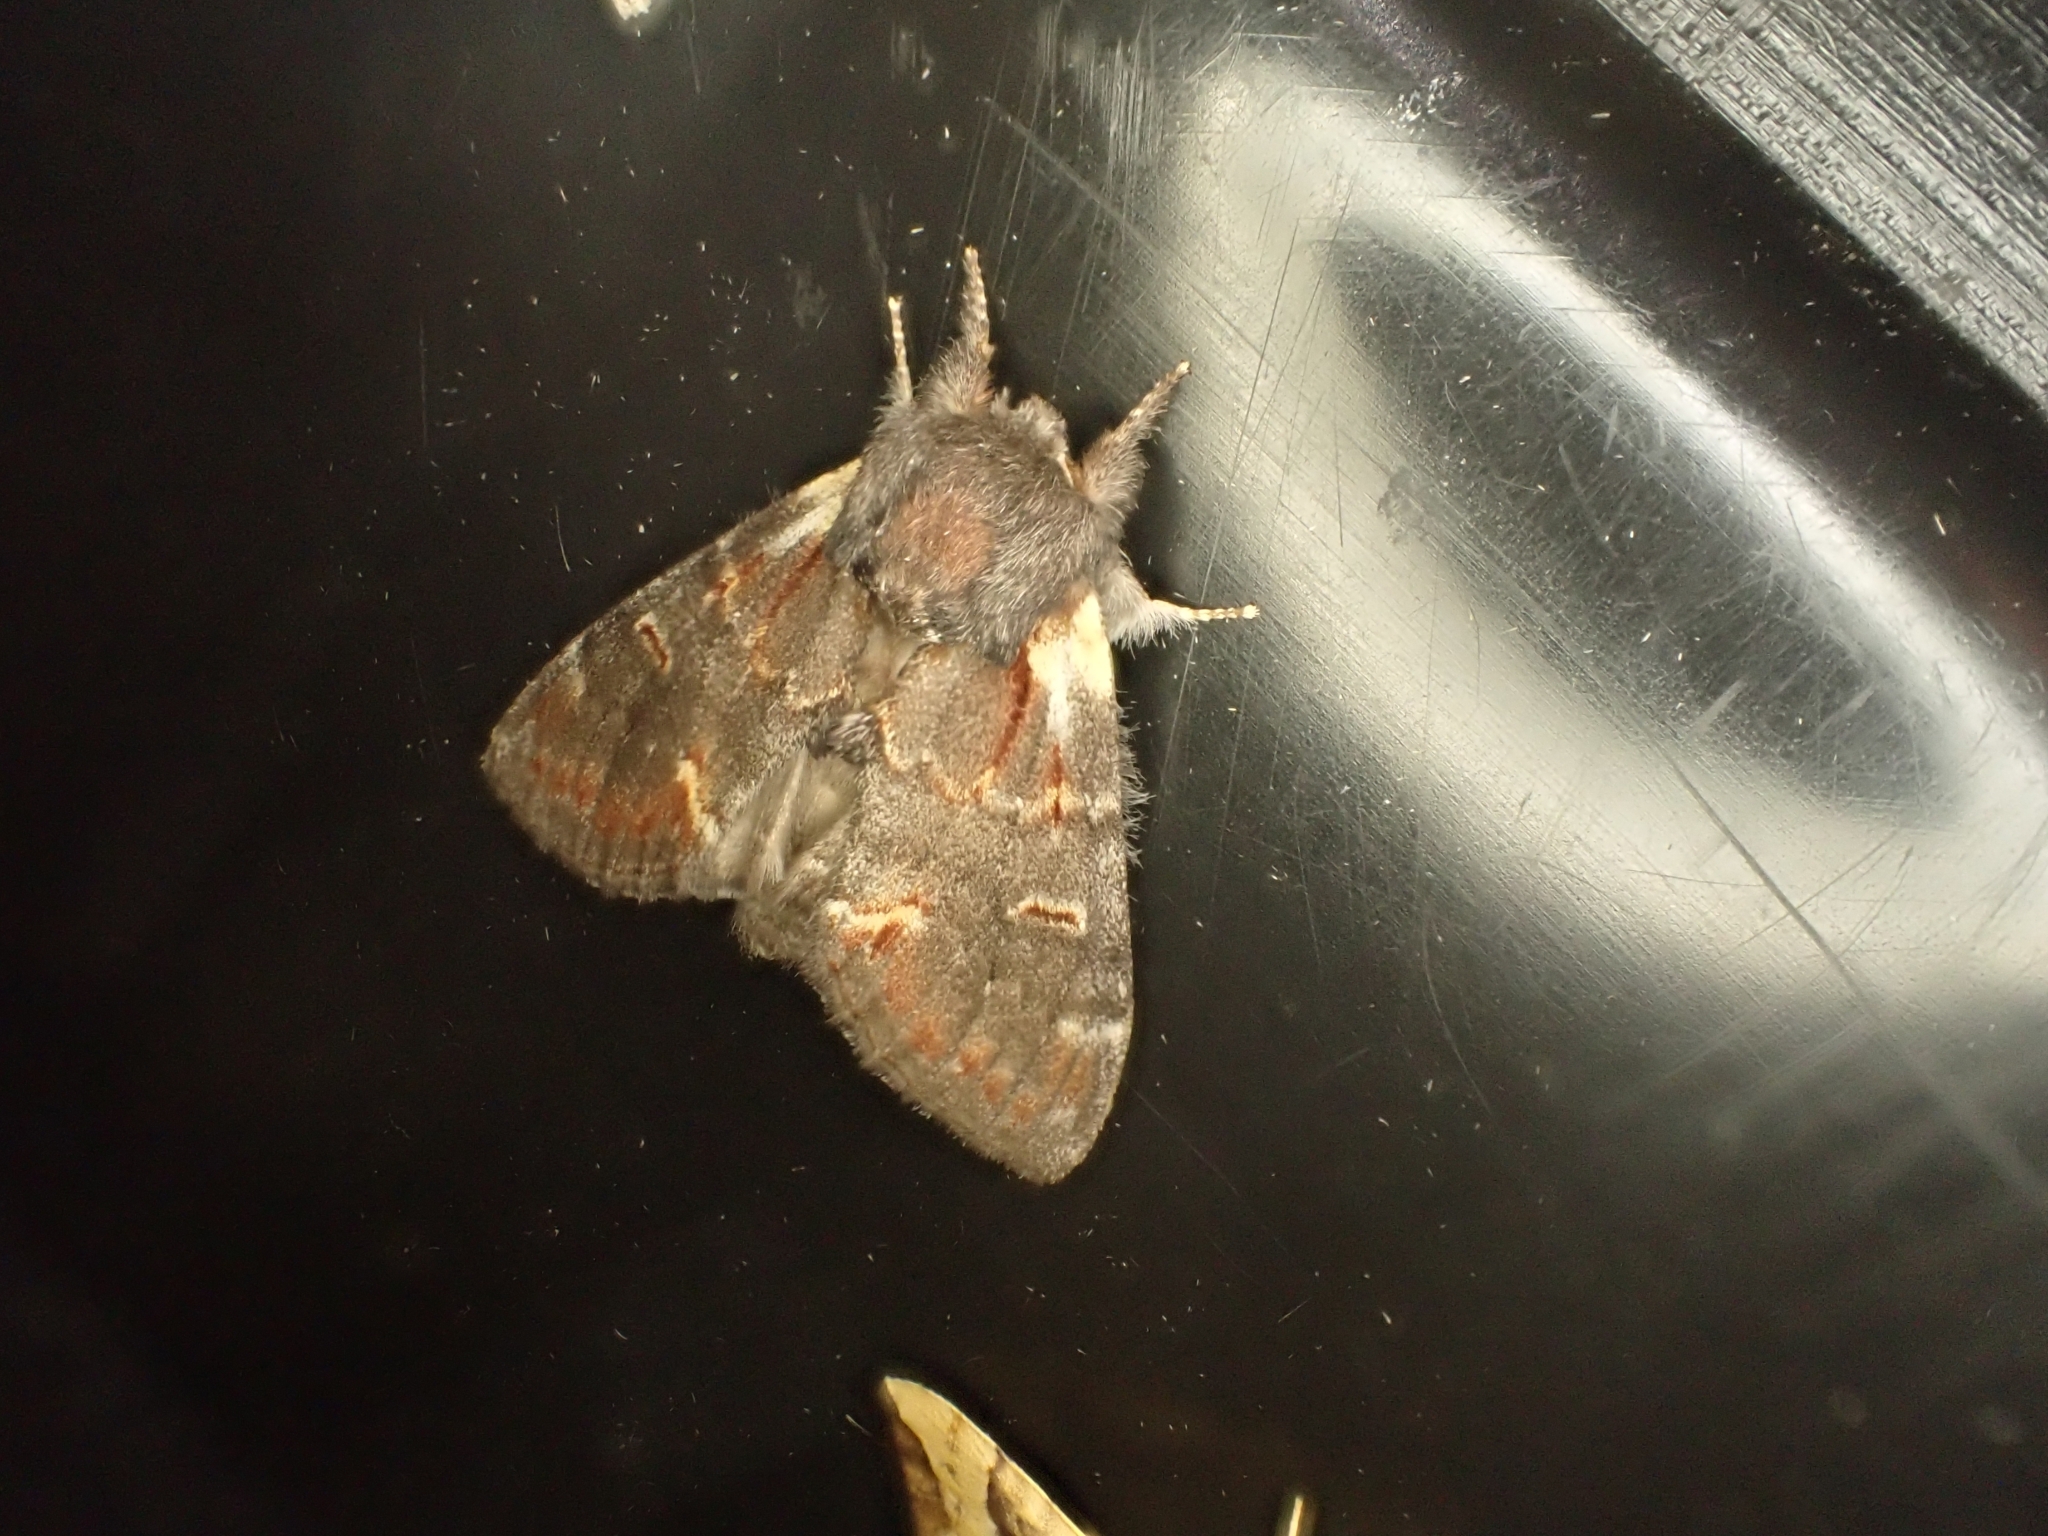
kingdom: Animalia
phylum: Arthropoda
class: Insecta
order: Lepidoptera
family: Notodontidae
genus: Notodonta
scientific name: Notodonta dromedarius
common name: Iron prominent
